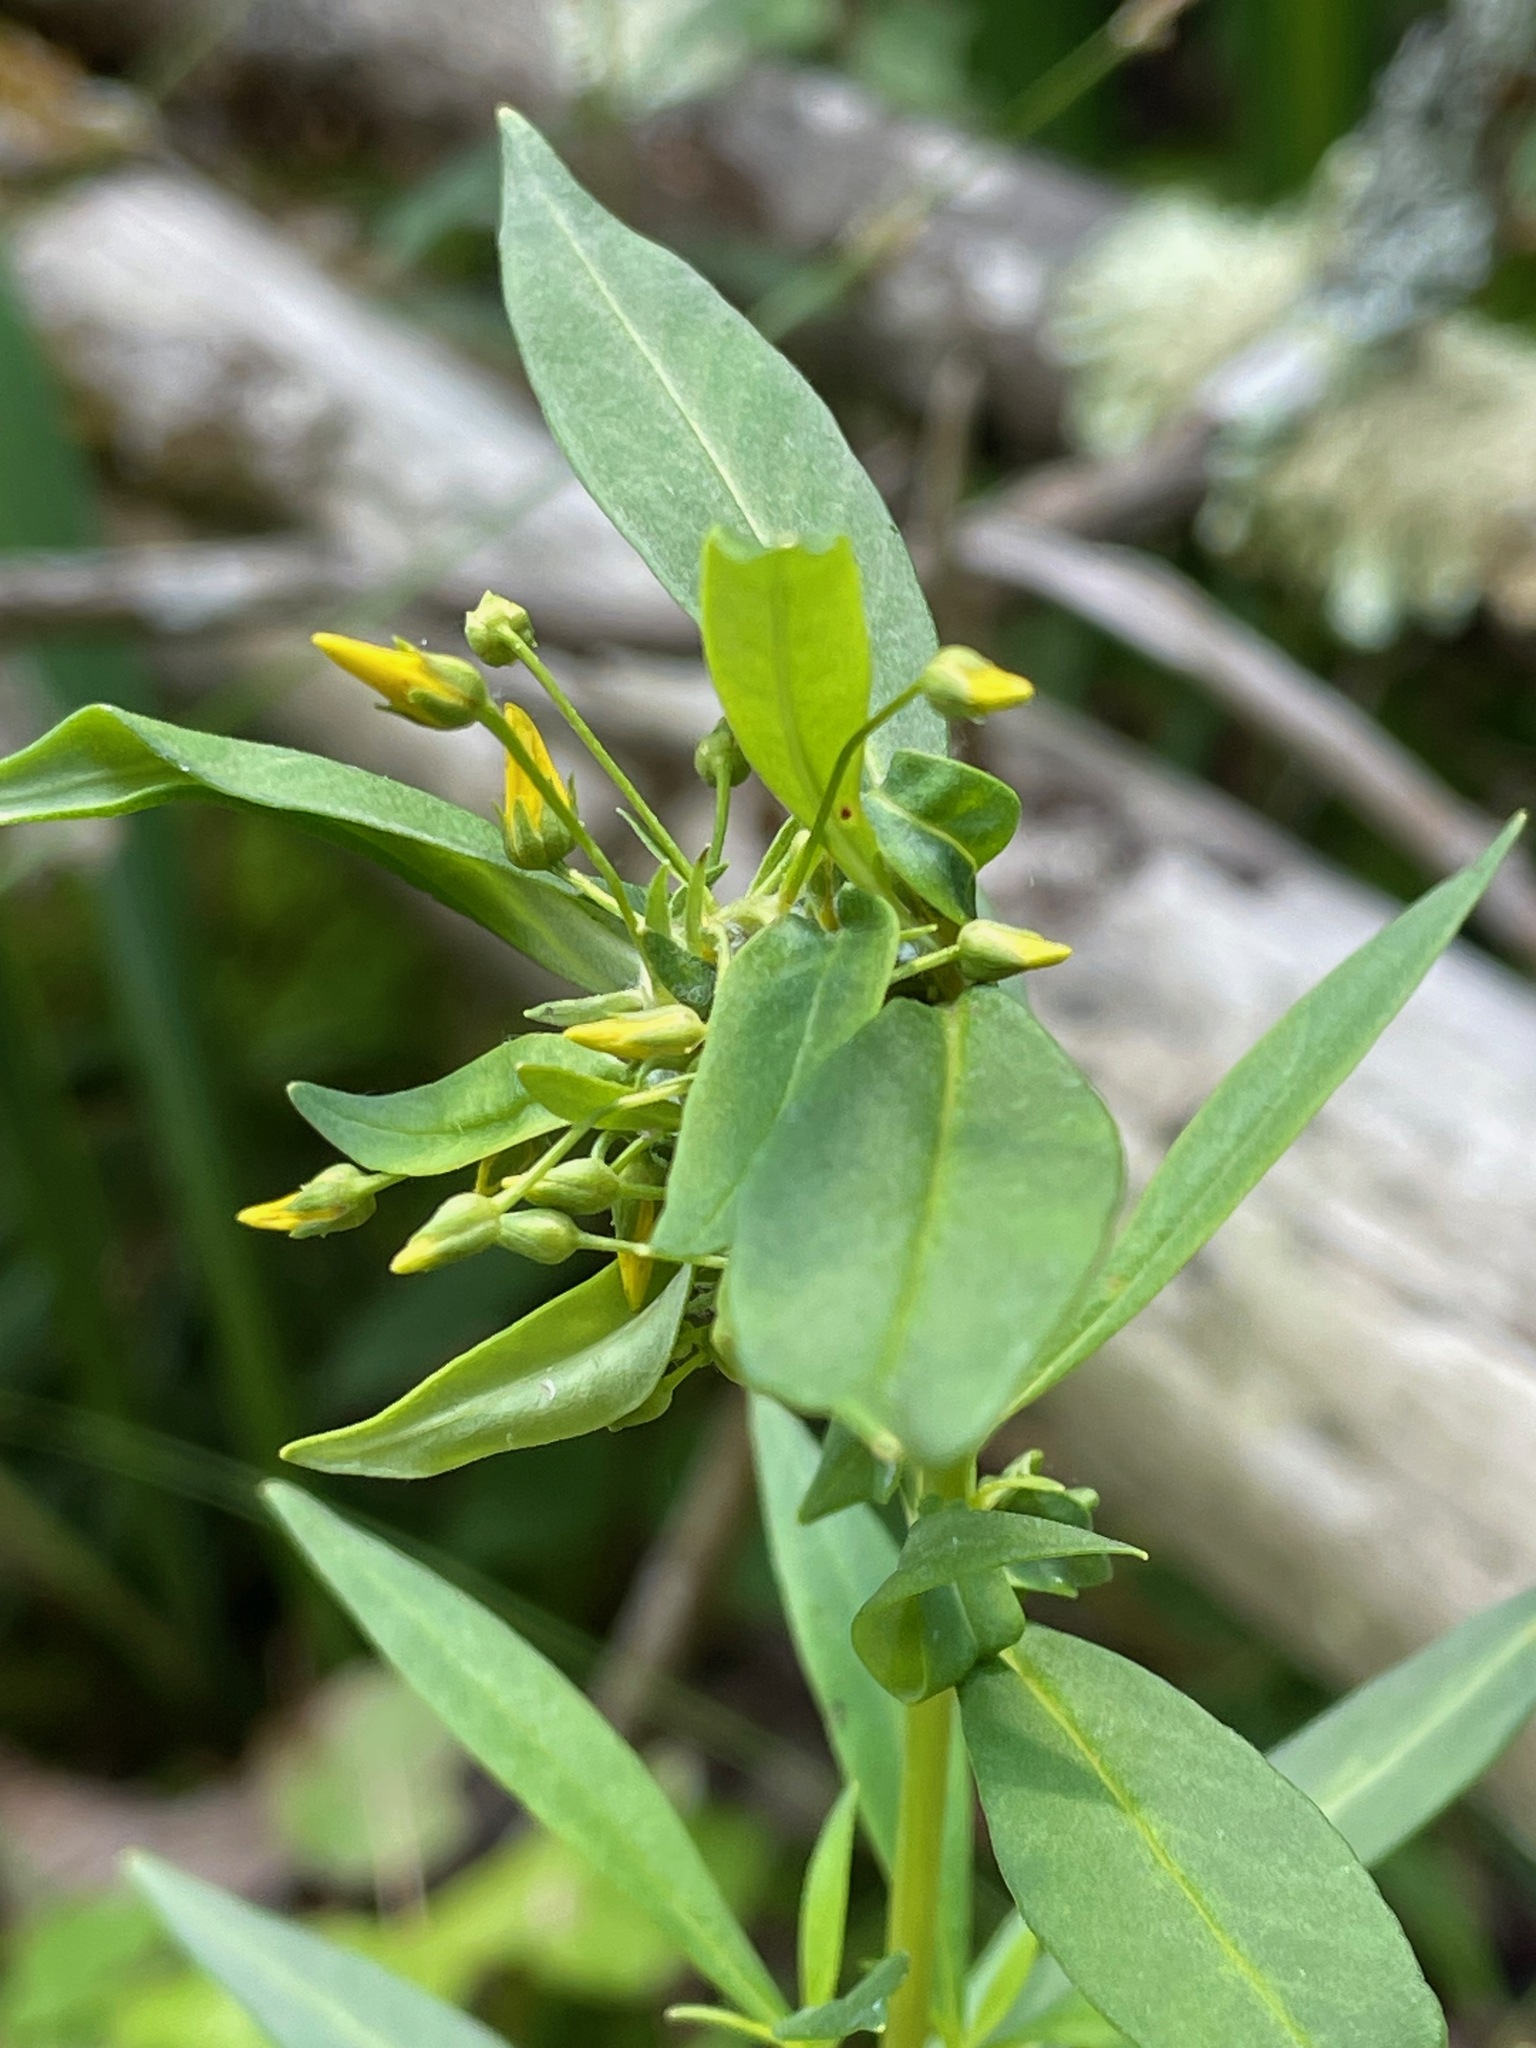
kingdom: Plantae
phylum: Tracheophyta
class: Magnoliopsida
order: Ericales
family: Primulaceae
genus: Lysimachia
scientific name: Lysimachia terrestris
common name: Lake loosestrife
